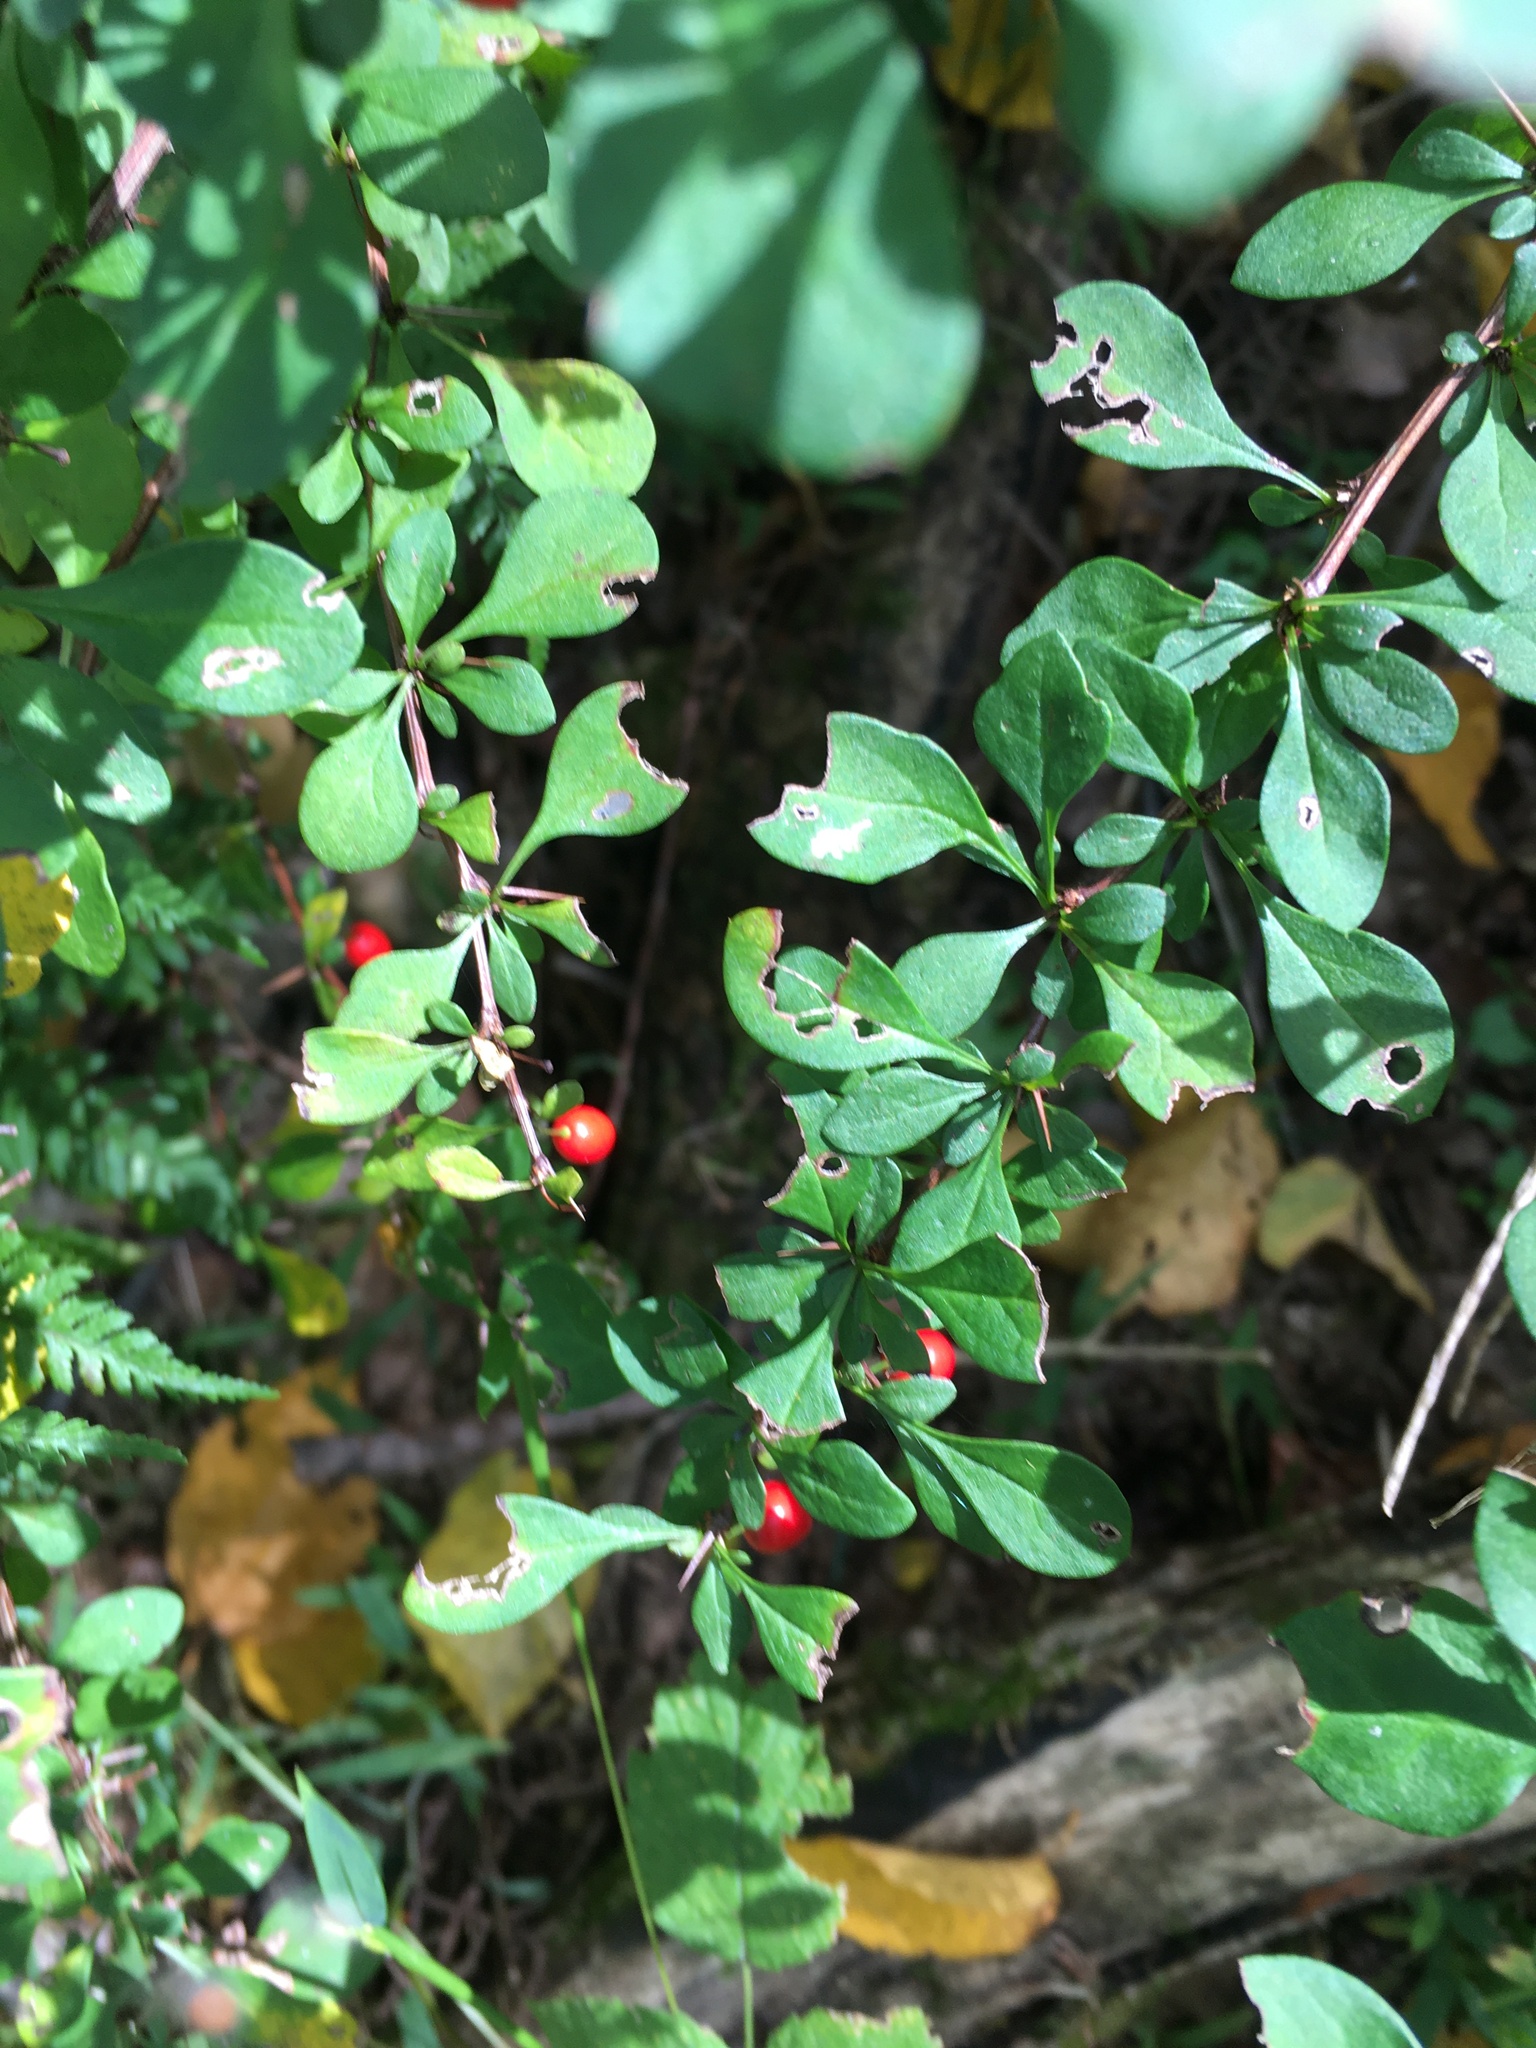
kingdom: Plantae
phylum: Tracheophyta
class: Magnoliopsida
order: Ranunculales
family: Berberidaceae
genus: Berberis
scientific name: Berberis thunbergii
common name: Japanese barberry
